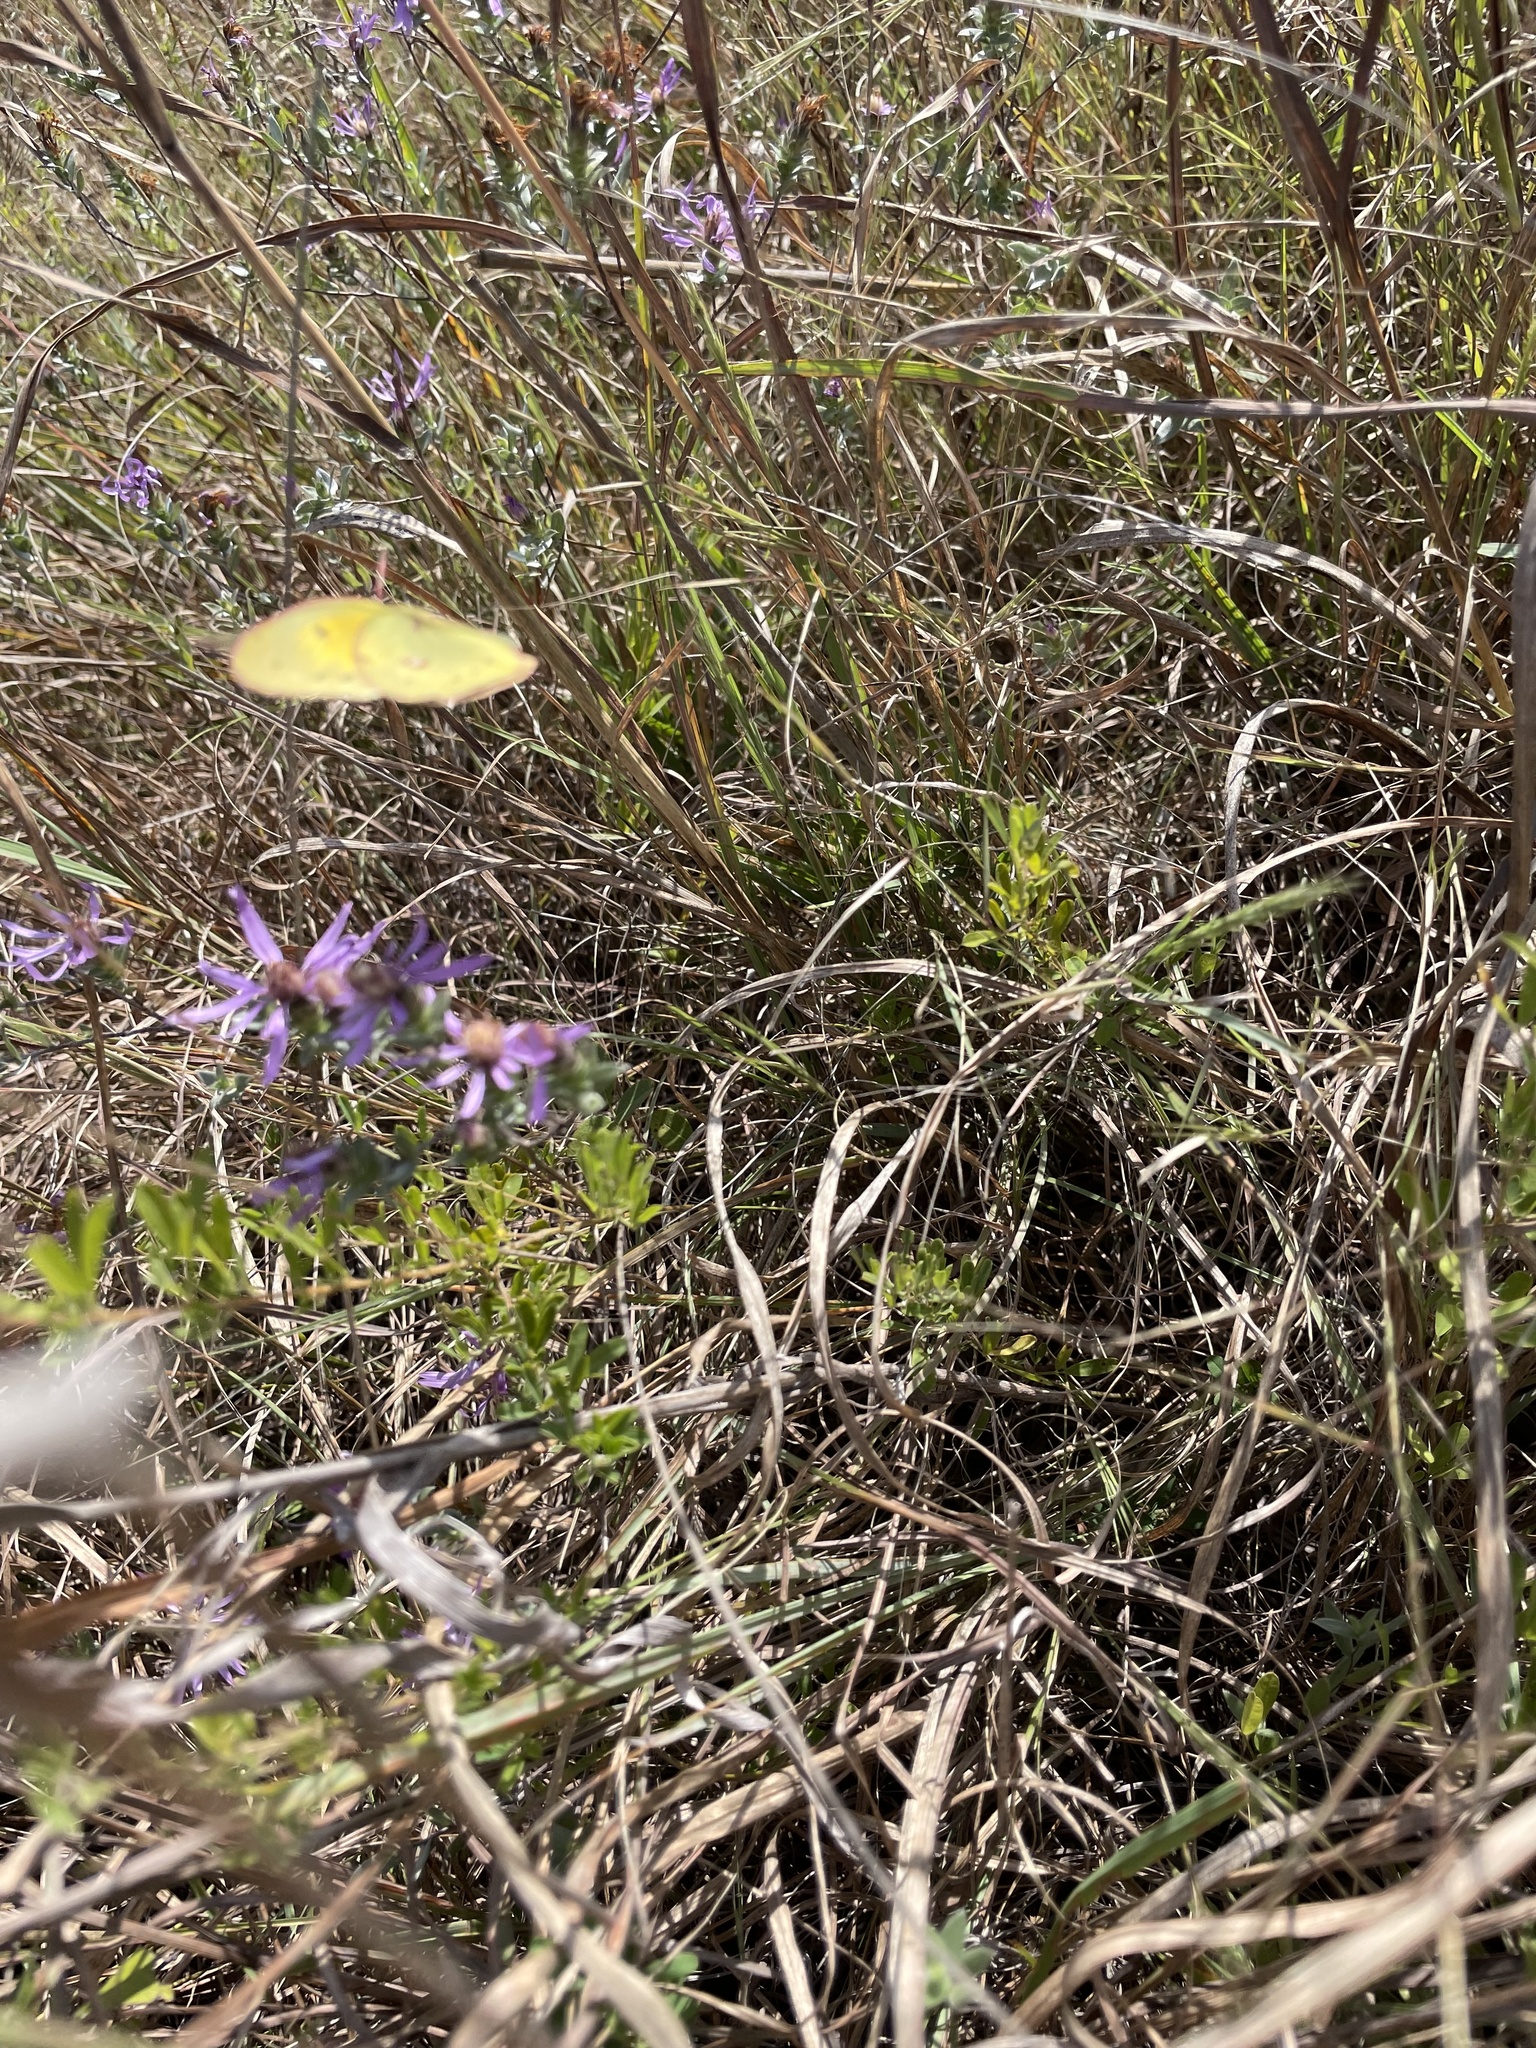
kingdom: Animalia
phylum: Arthropoda
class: Insecta
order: Lepidoptera
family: Pieridae
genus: Colias
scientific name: Colias eurytheme
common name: Alfalfa butterfly
